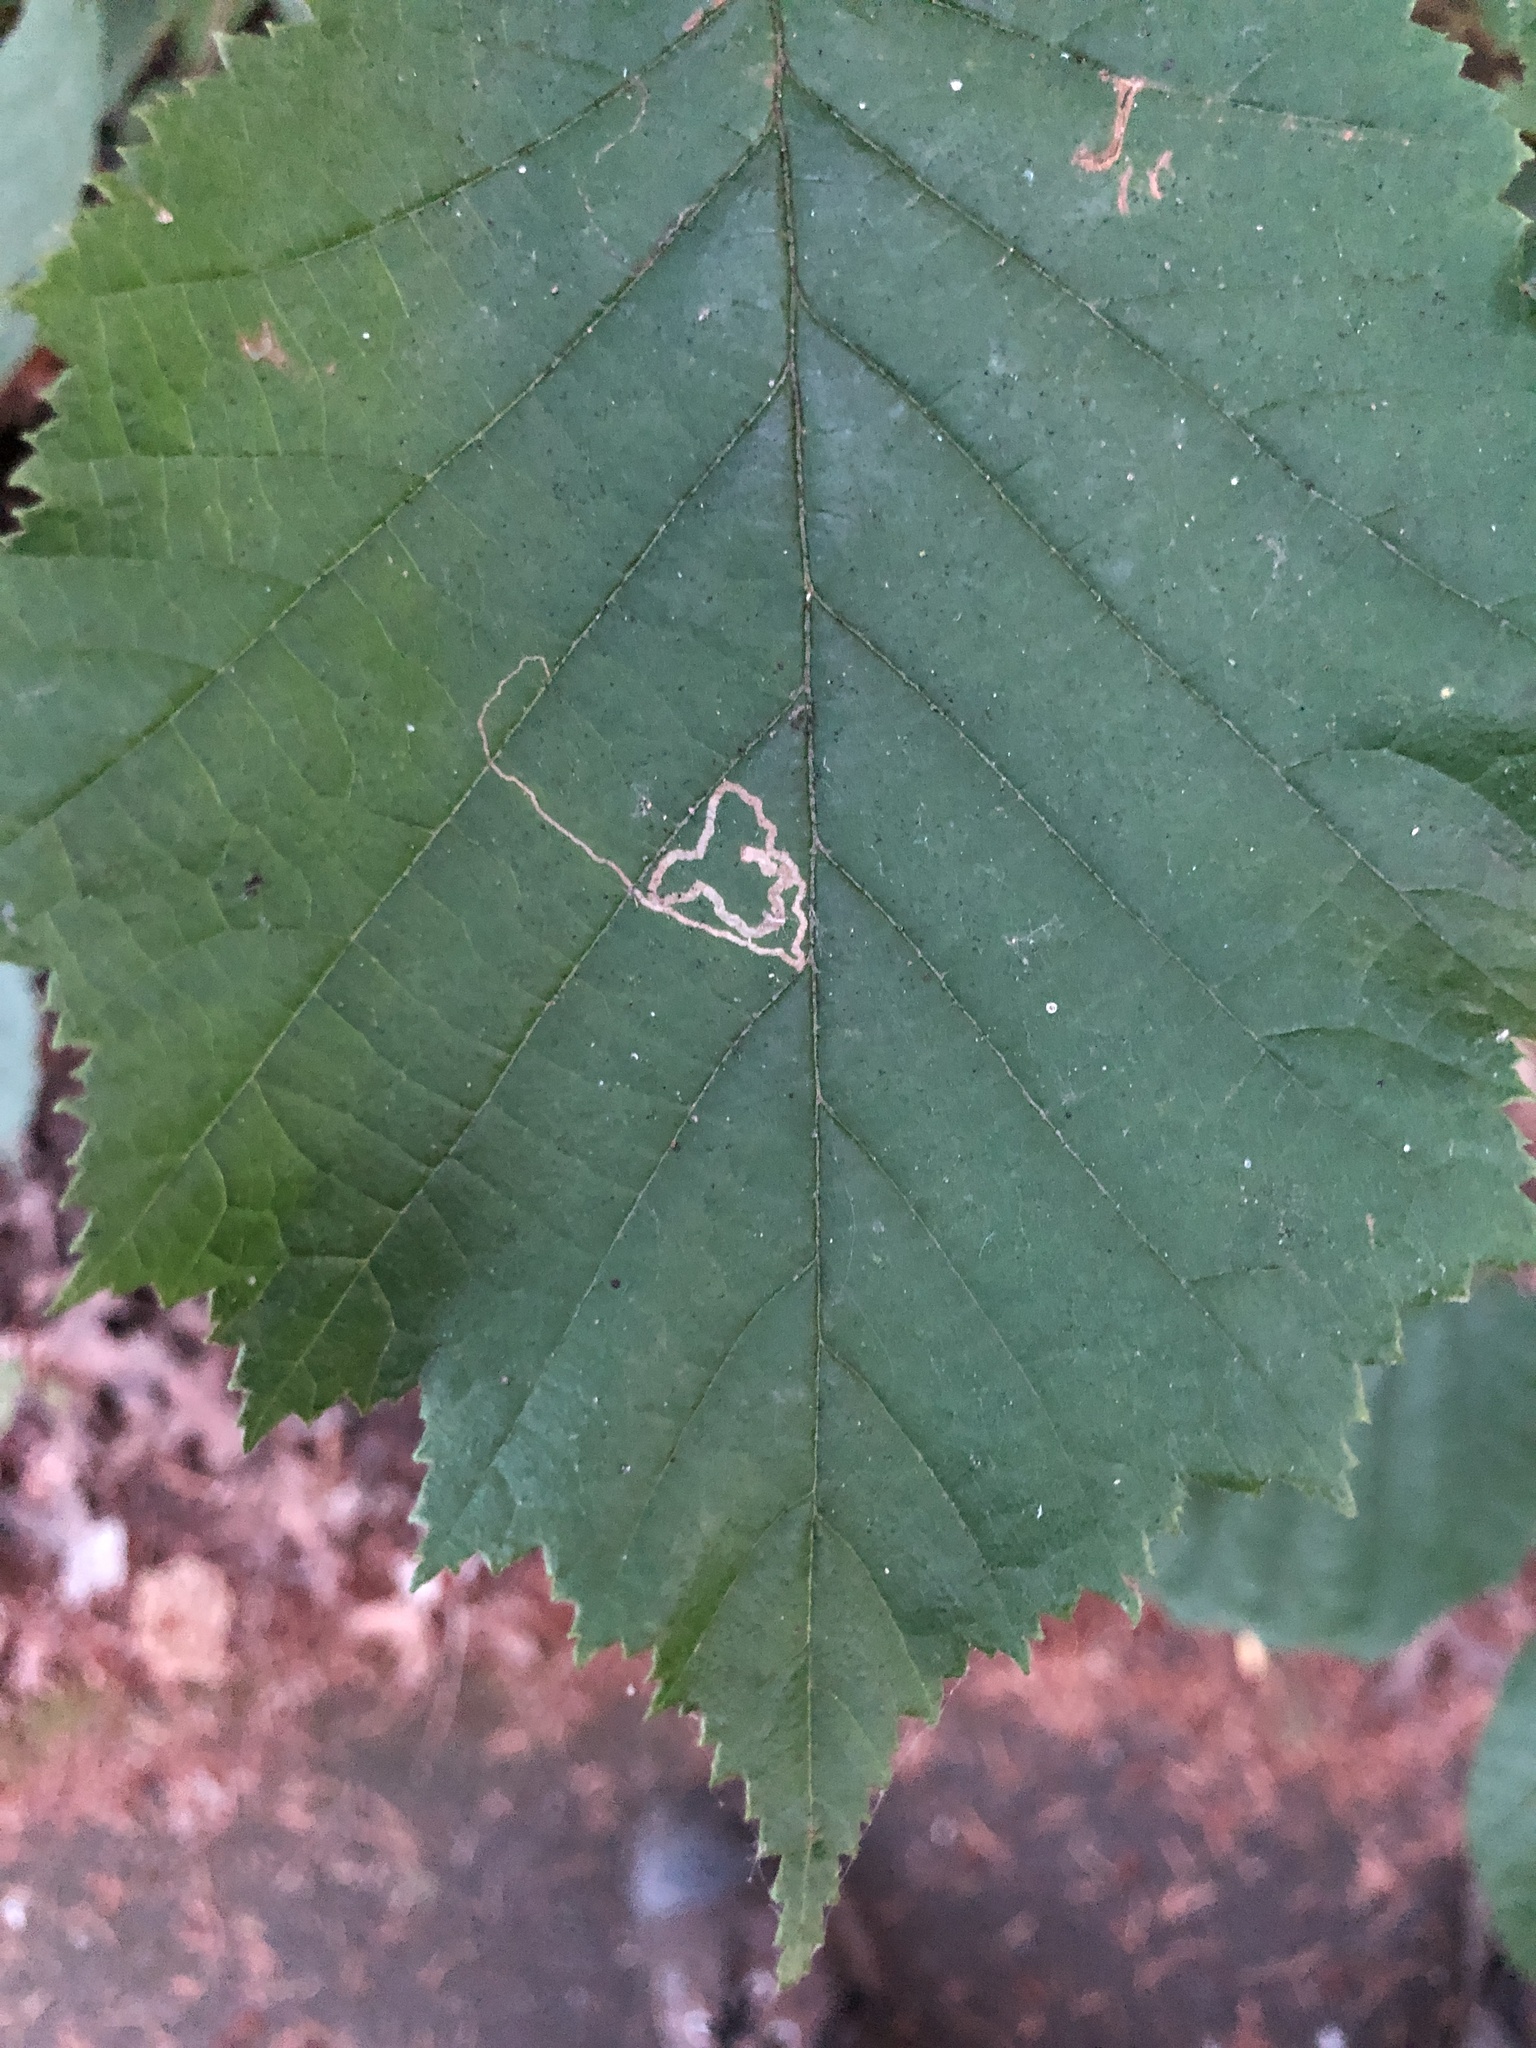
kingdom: Animalia
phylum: Arthropoda
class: Insecta
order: Lepidoptera
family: Nepticulidae
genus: Stigmella
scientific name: Stigmella microtheriella
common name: Nut-tree pigmy
